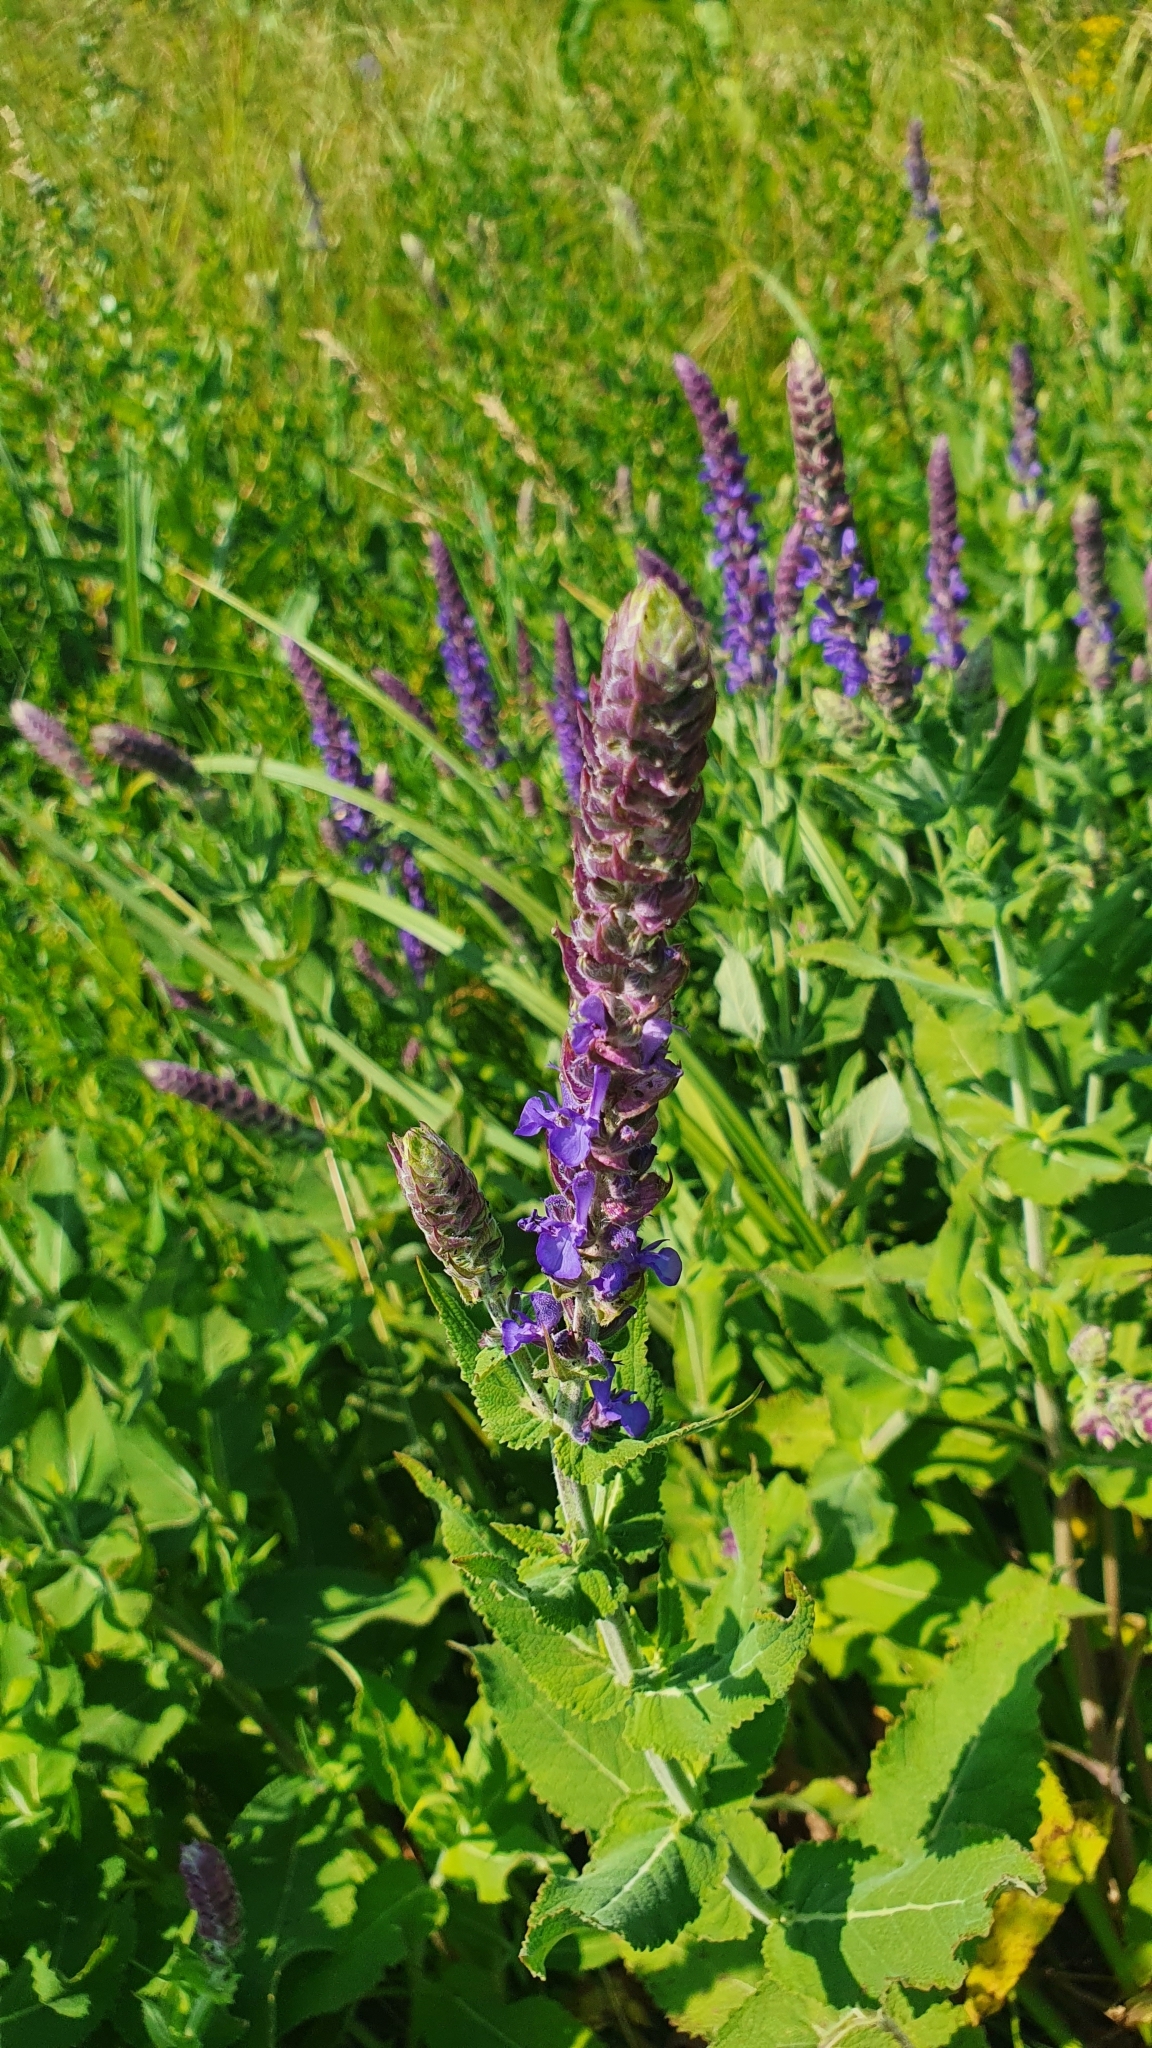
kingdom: Plantae
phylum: Tracheophyta
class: Magnoliopsida
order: Lamiales
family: Lamiaceae
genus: Salvia
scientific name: Salvia nemorosa
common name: Balkan clary
